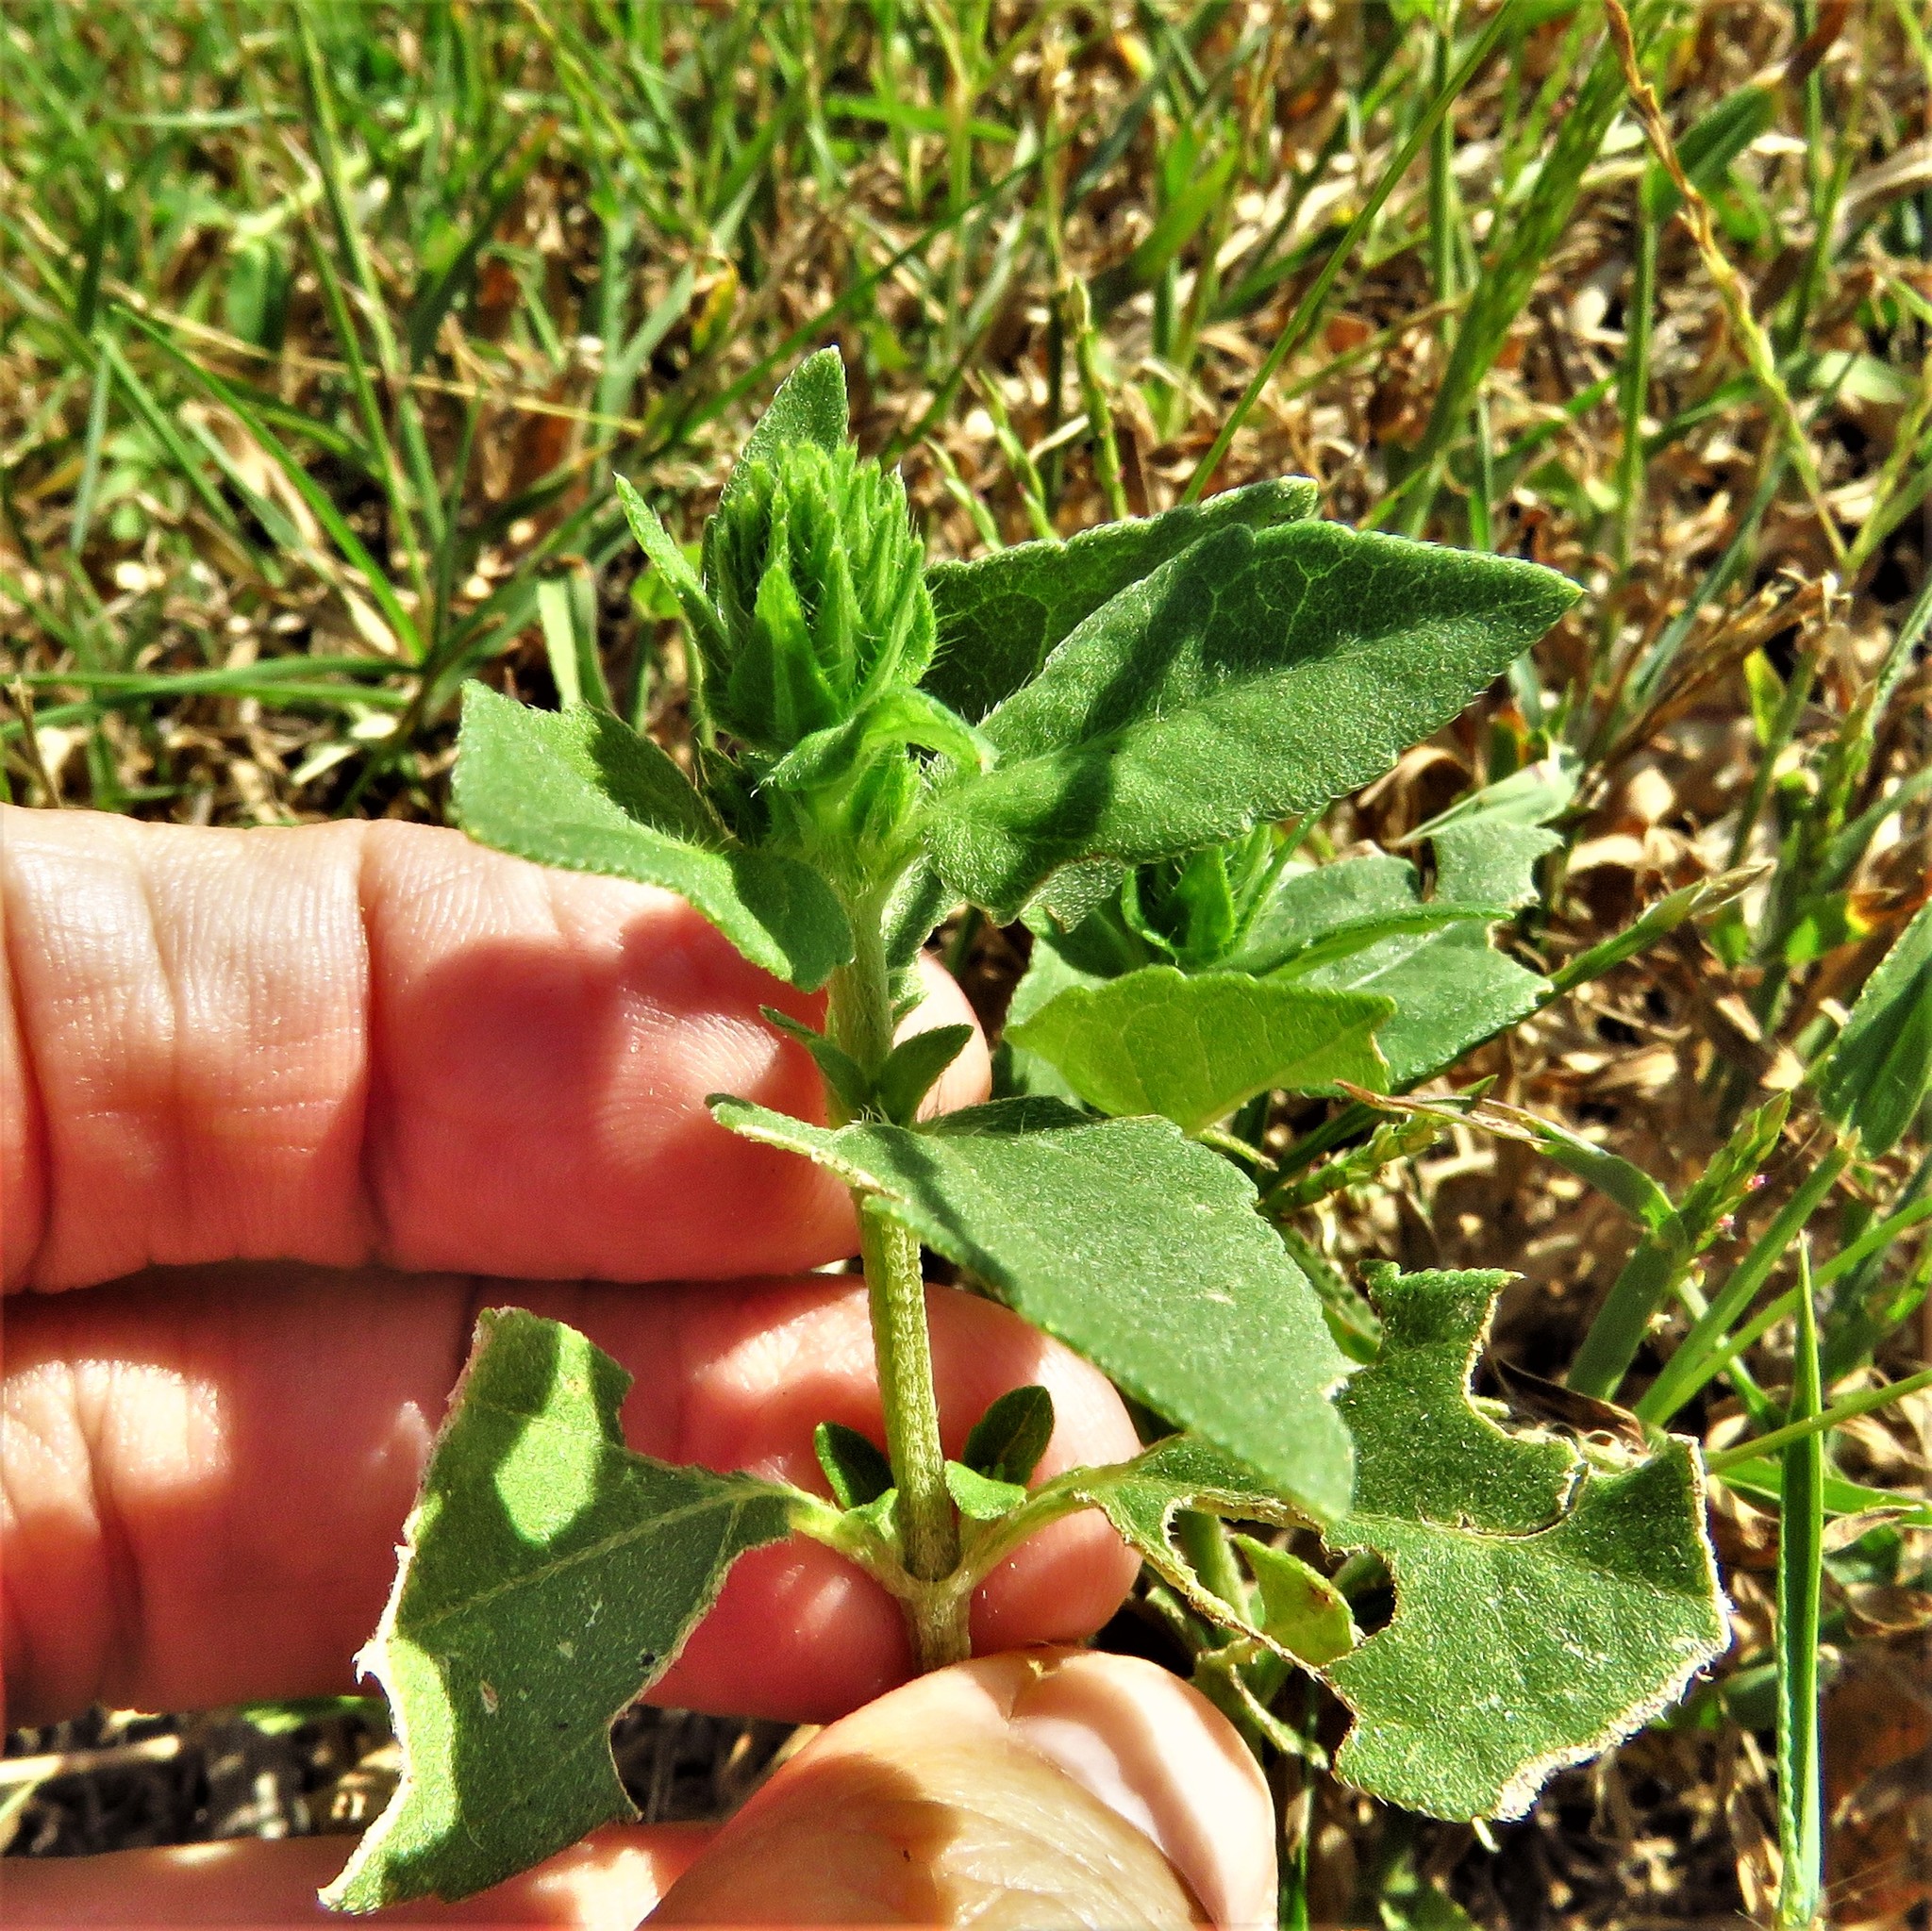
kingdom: Plantae
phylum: Tracheophyta
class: Magnoliopsida
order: Asterales
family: Asteraceae
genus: Iva
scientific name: Iva annua
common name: Marsh-elder
